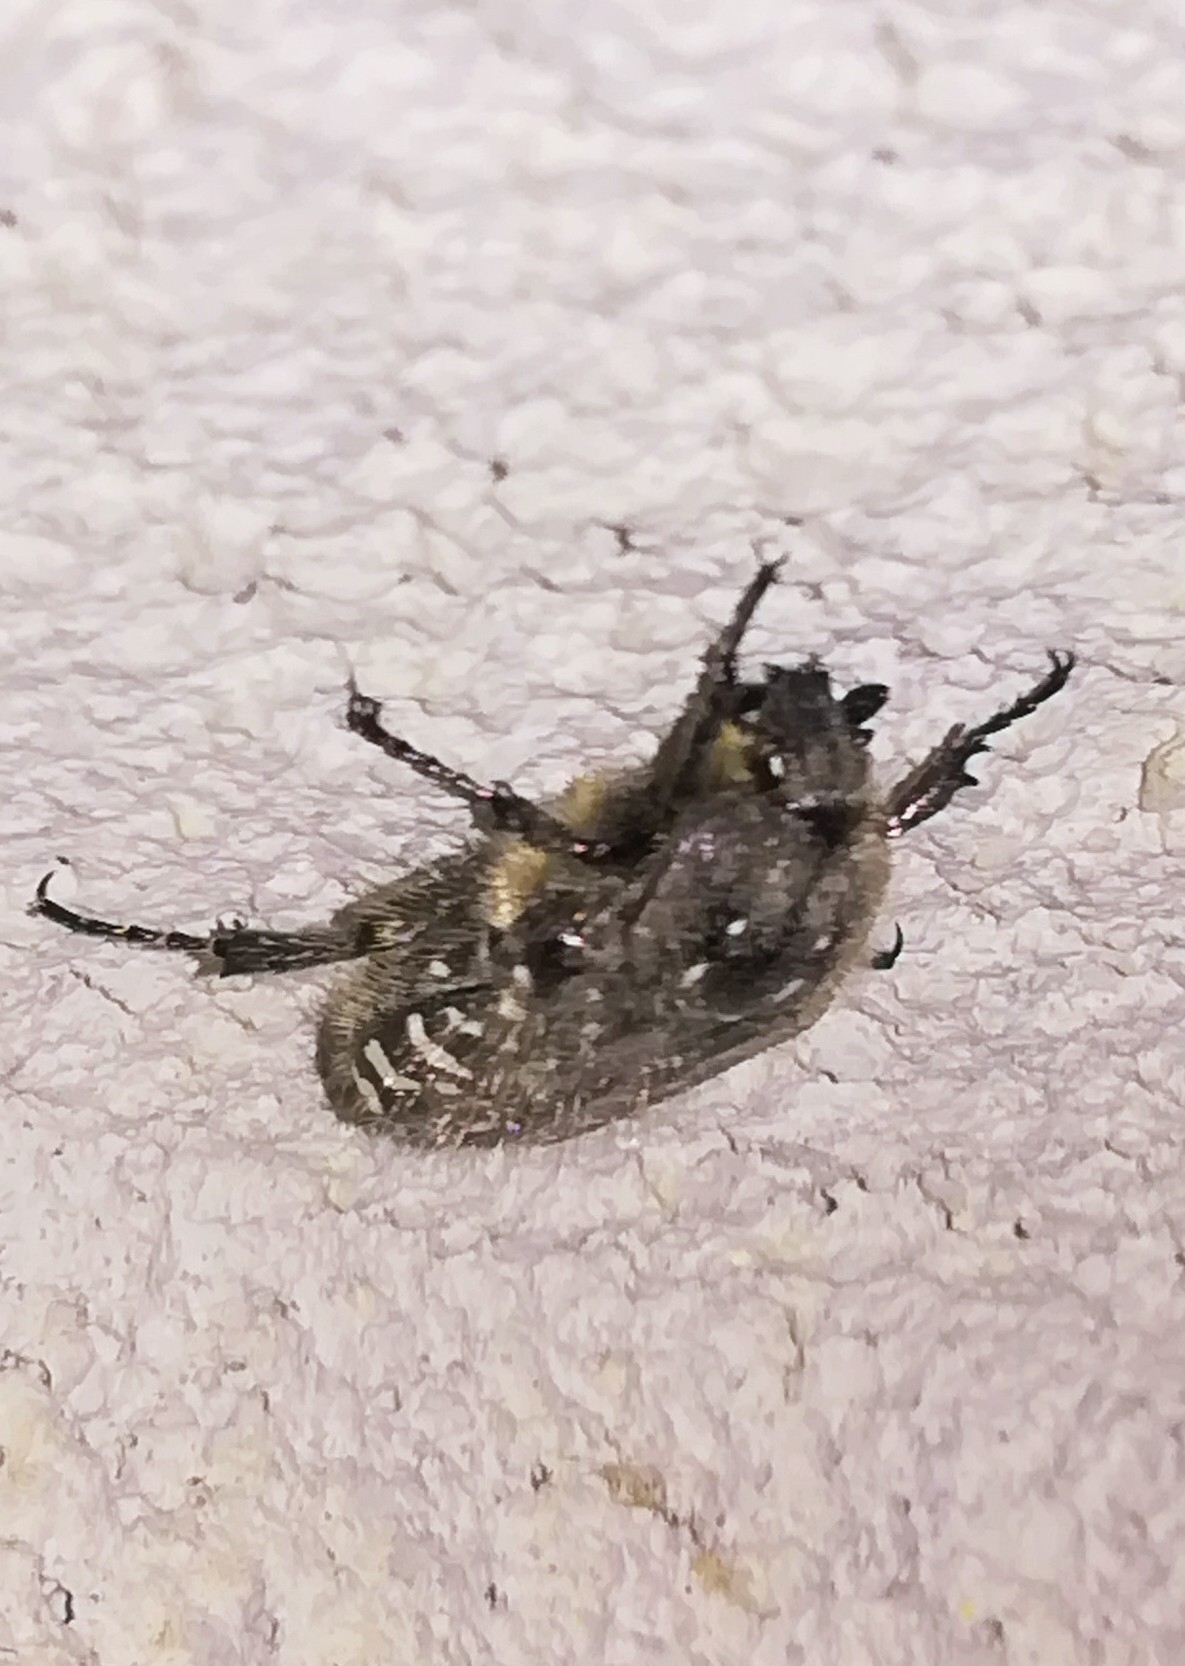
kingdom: Animalia
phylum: Arthropoda
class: Insecta
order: Coleoptera
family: Scarabaeidae
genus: Oxythyrea
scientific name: Oxythyrea funesta
